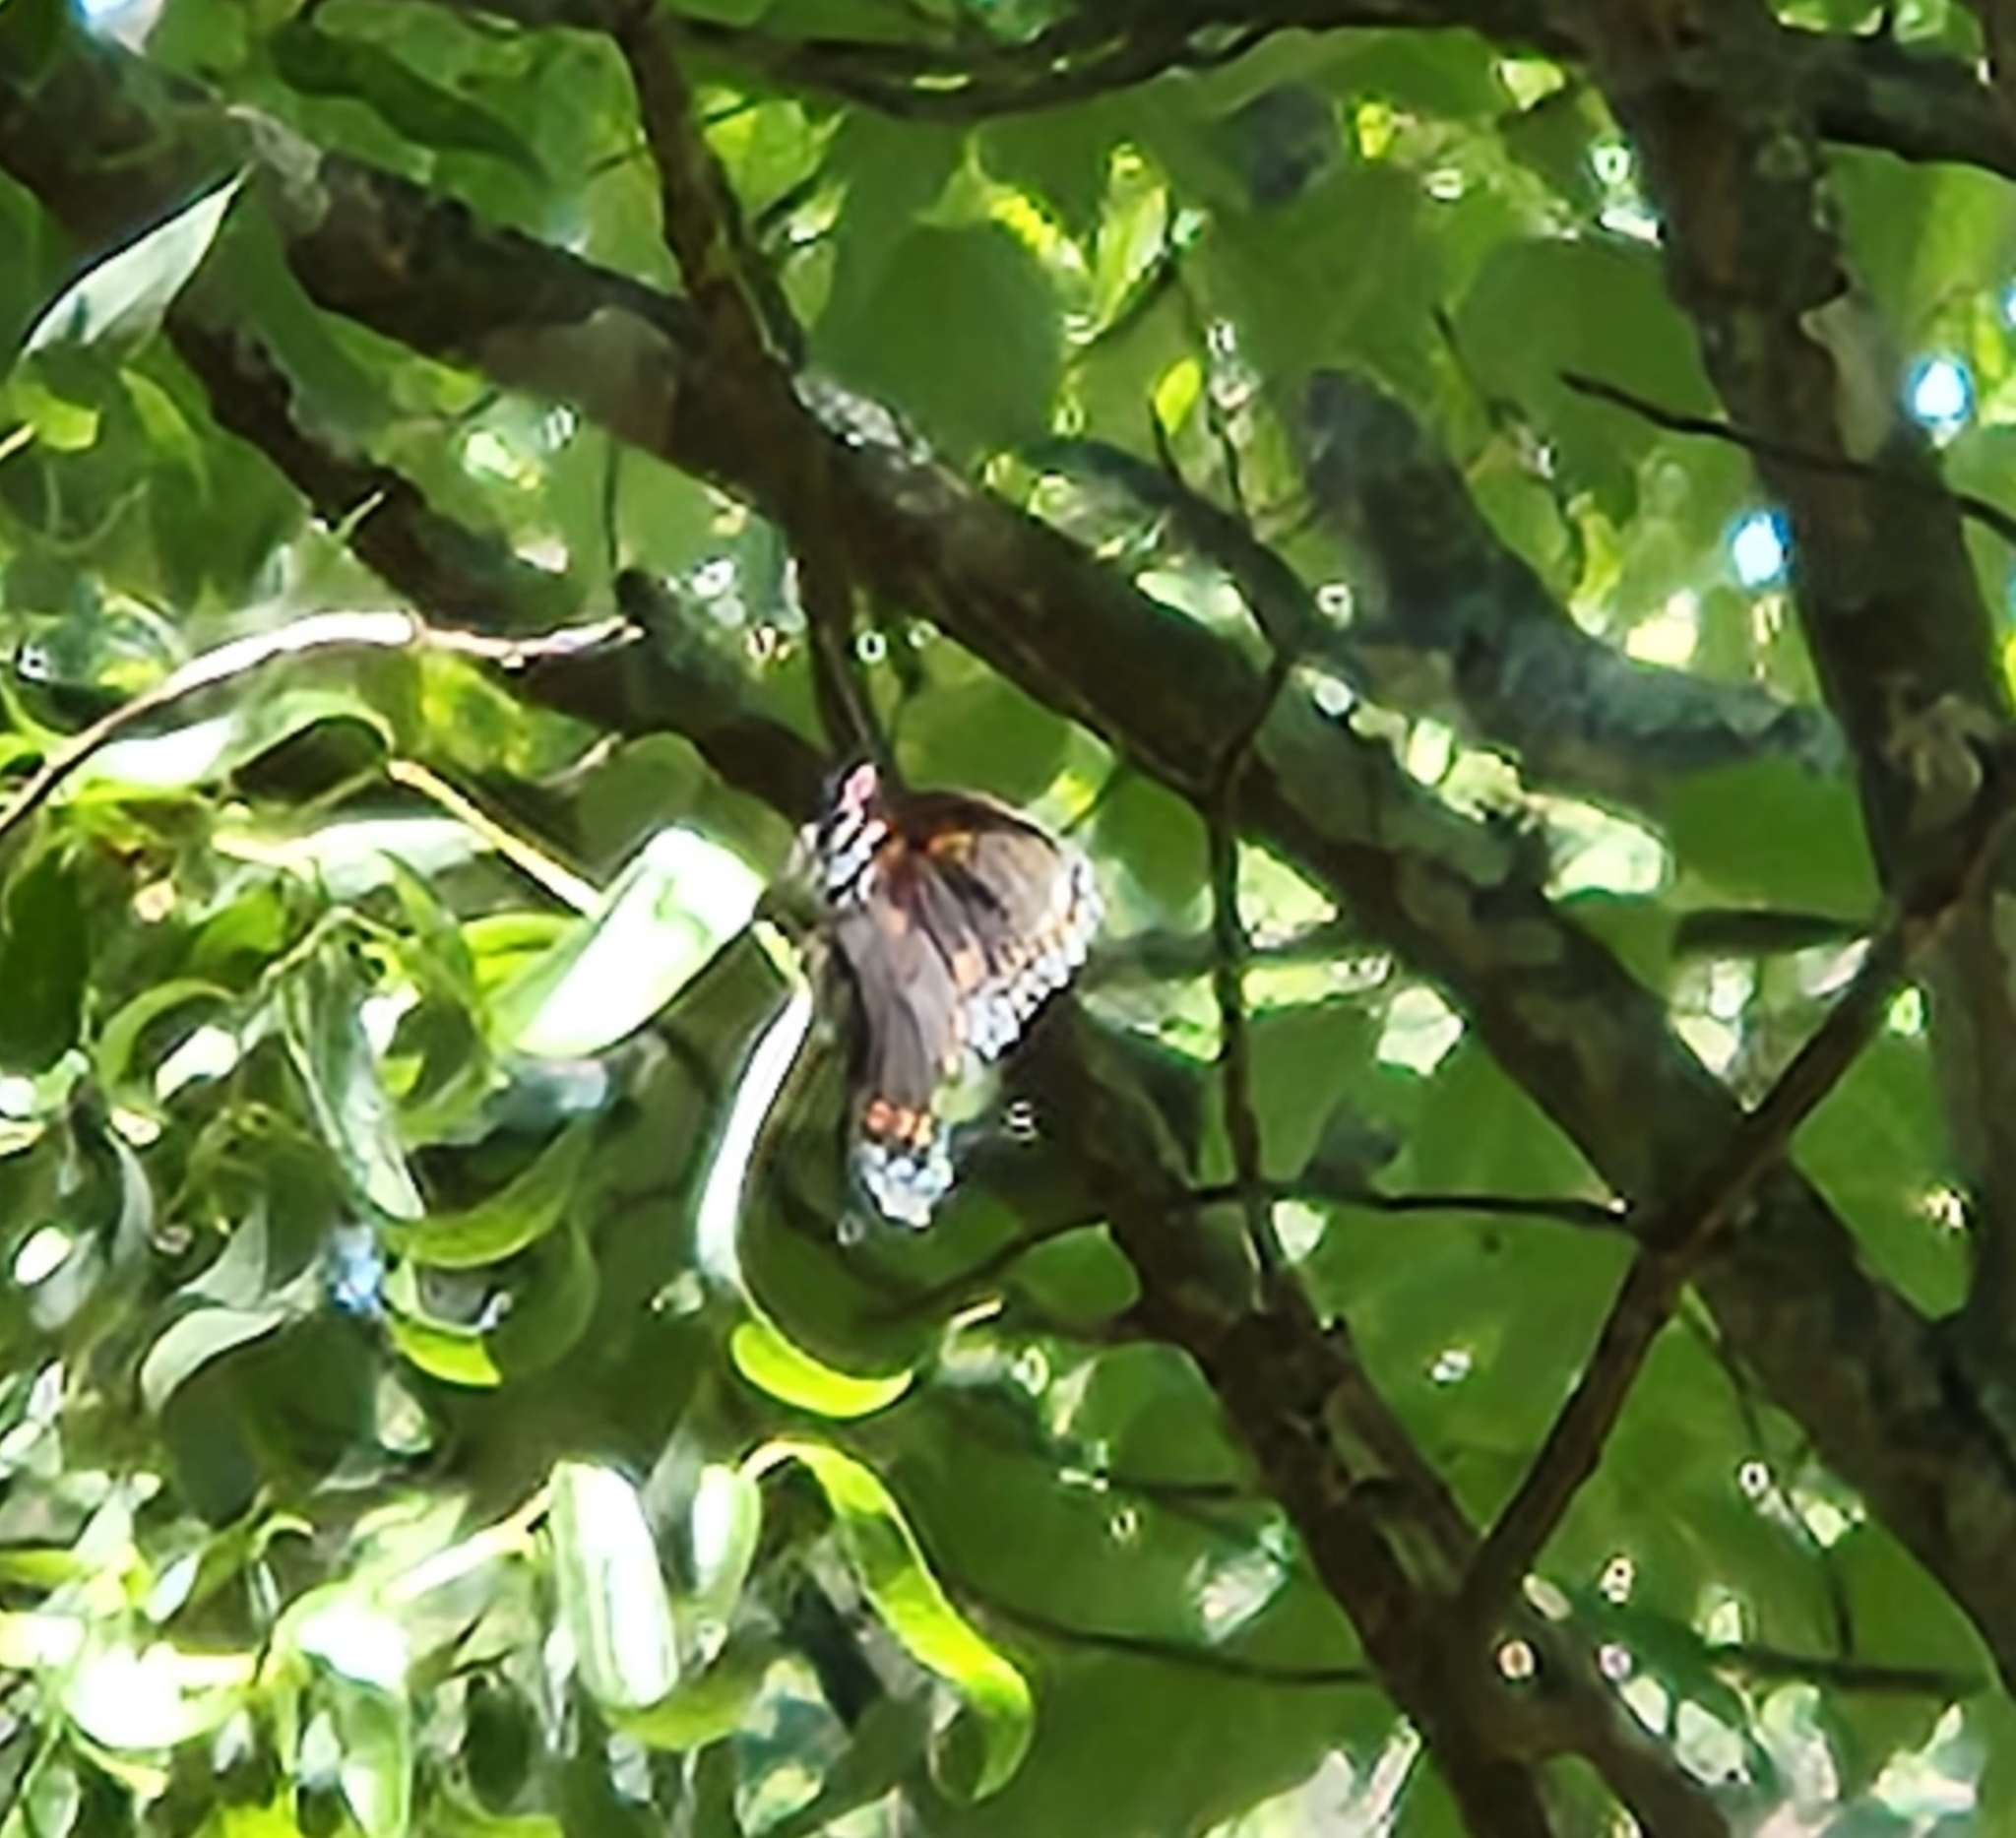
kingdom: Animalia
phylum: Arthropoda
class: Insecta
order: Lepidoptera
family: Nymphalidae
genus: Limenitis
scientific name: Limenitis astyanax
